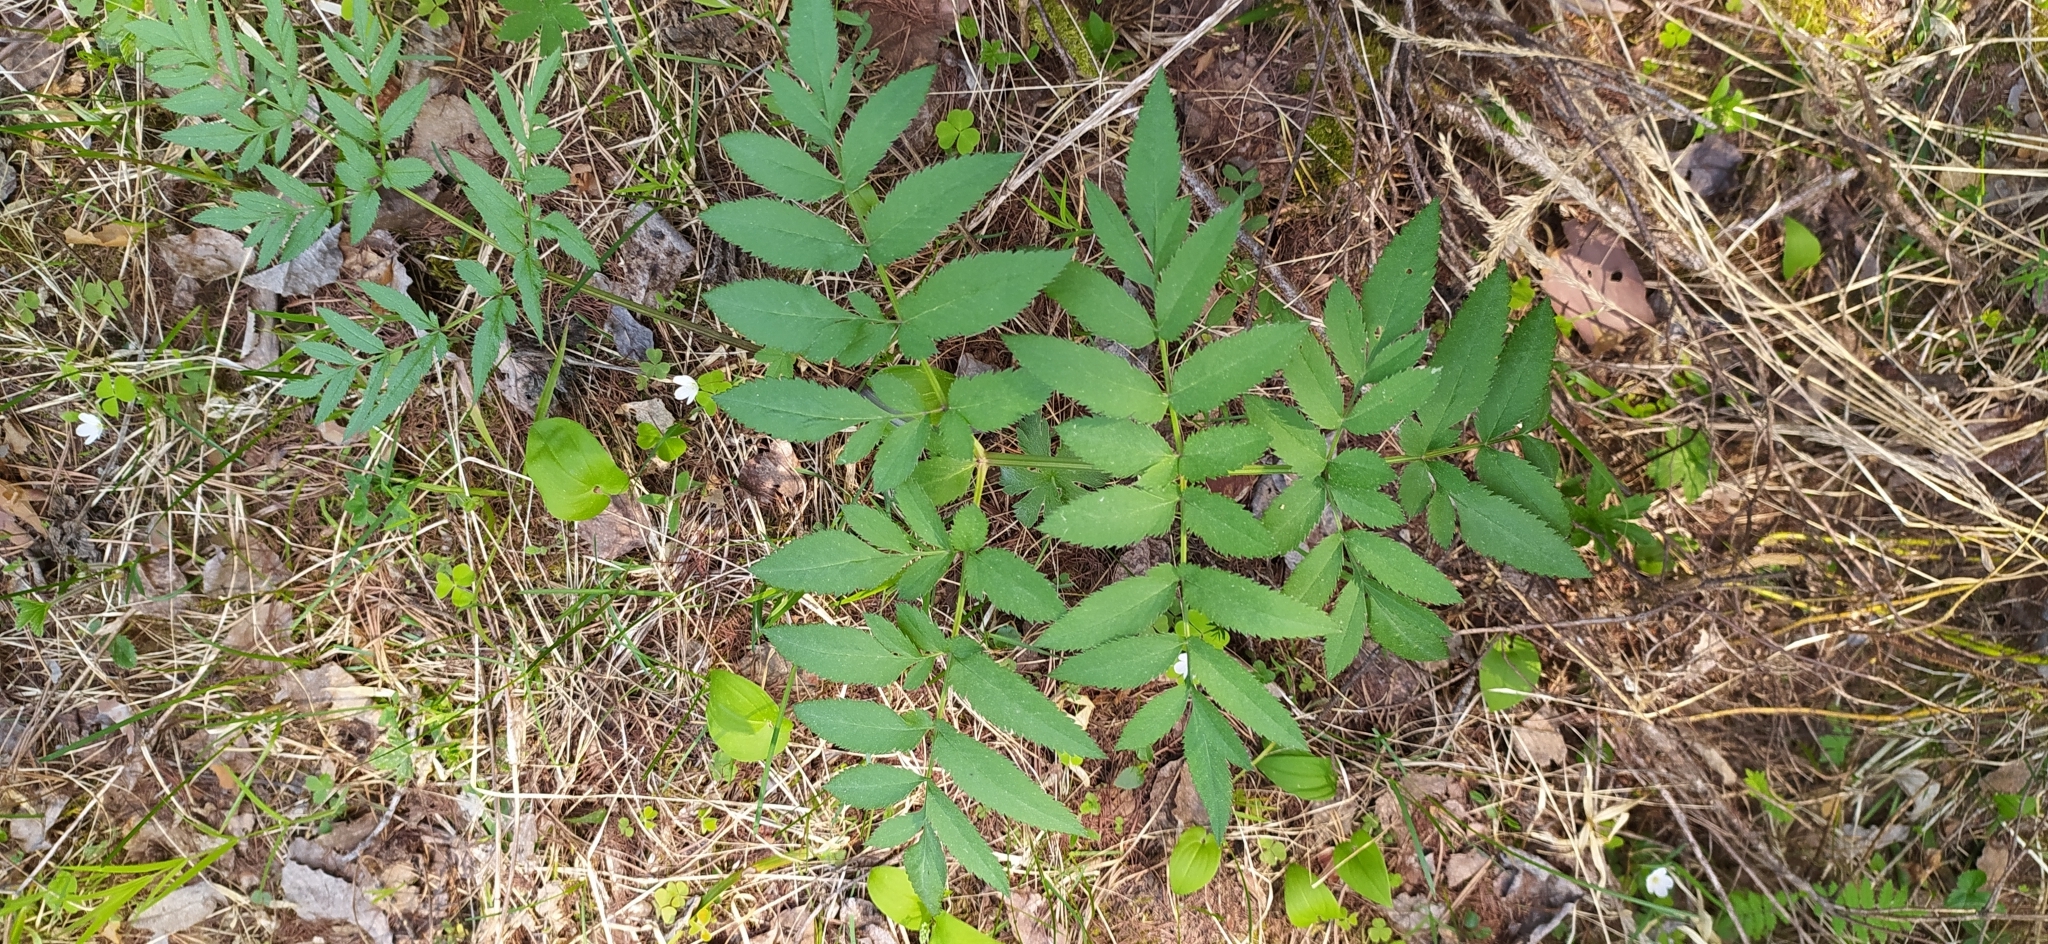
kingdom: Plantae
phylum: Tracheophyta
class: Magnoliopsida
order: Apiales
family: Apiaceae
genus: Angelica
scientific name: Angelica sylvestris
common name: Wild angelica
